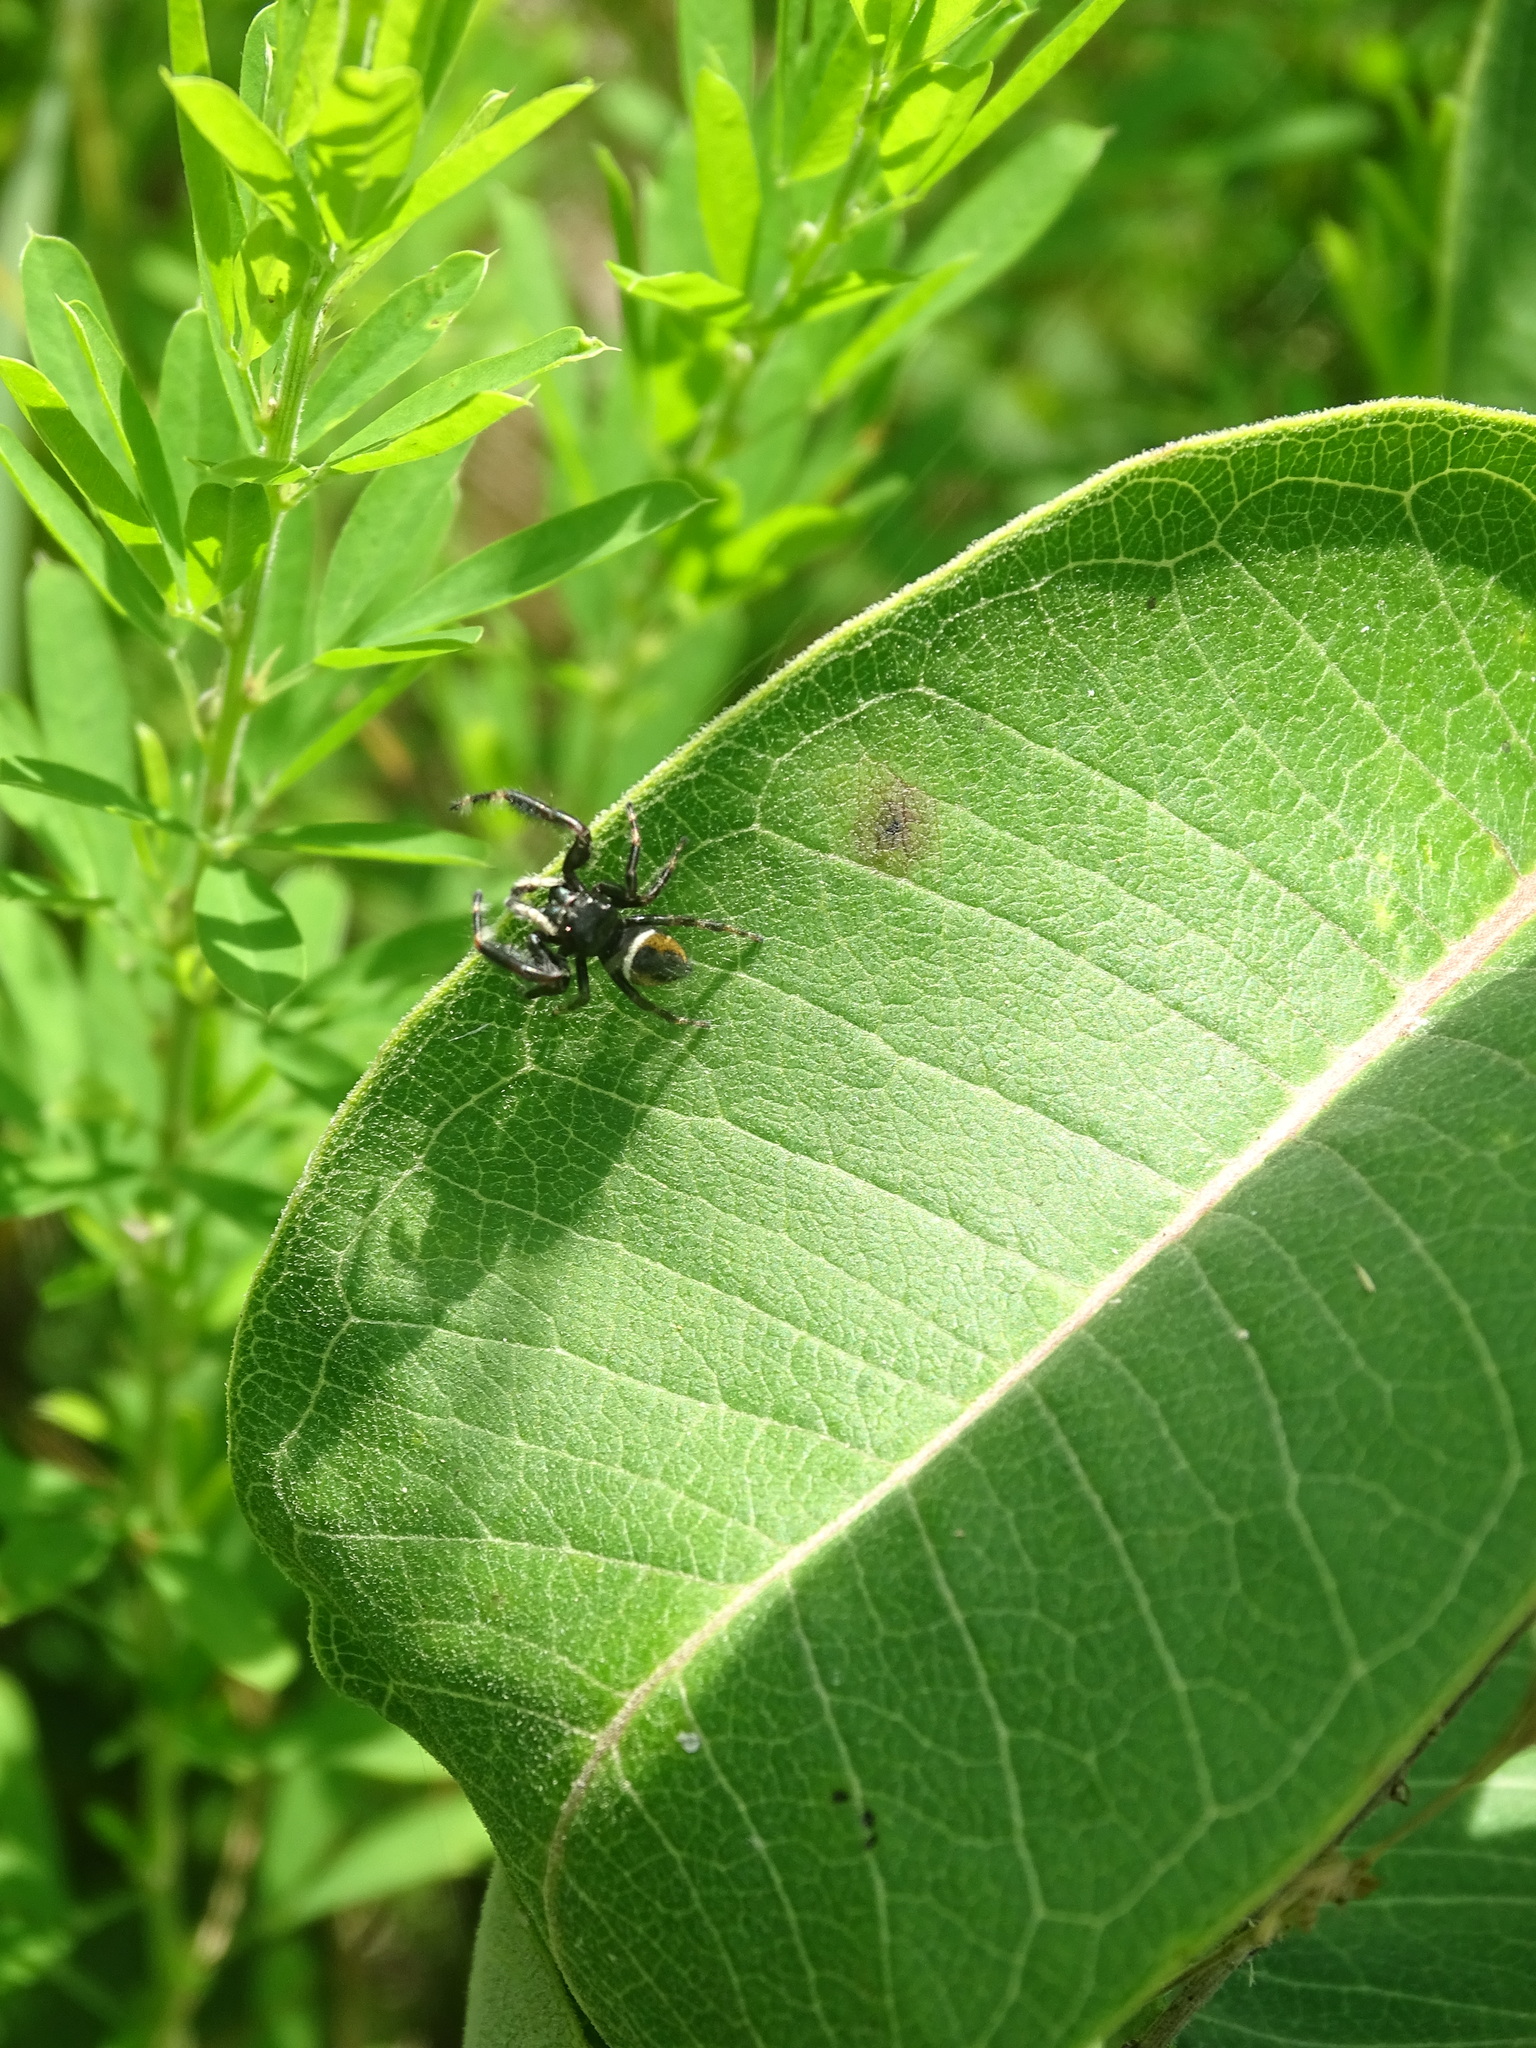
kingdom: Animalia
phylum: Arthropoda
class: Arachnida
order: Araneae
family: Salticidae
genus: Phidippus
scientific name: Phidippus clarus
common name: Brilliant jumping spider
